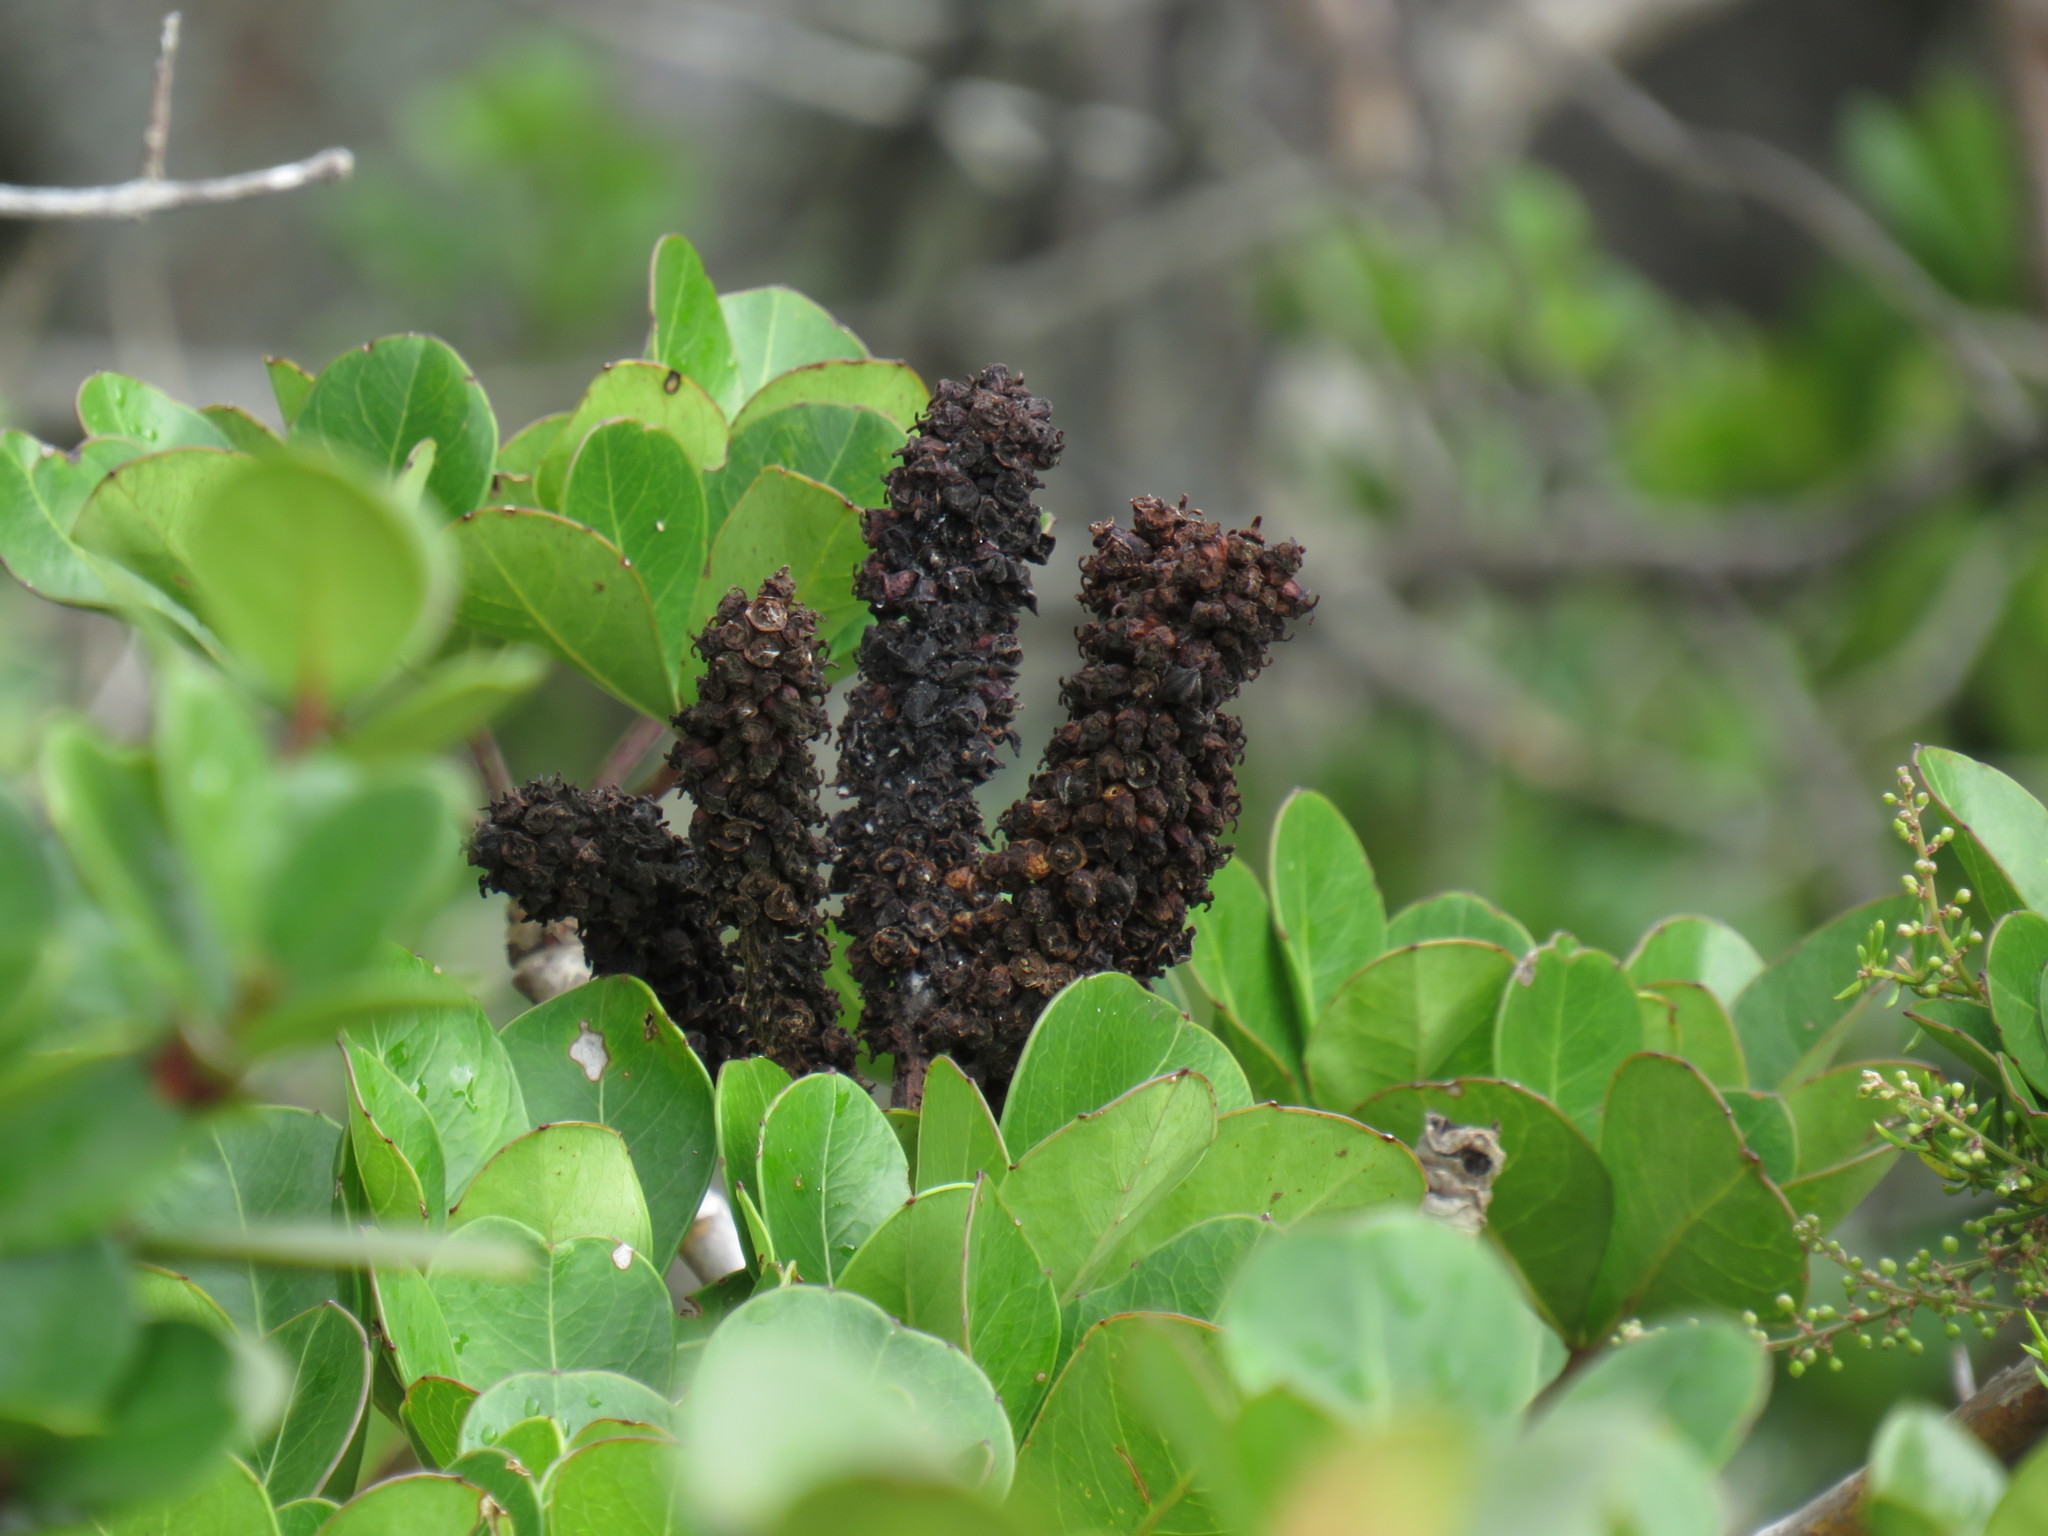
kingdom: Plantae
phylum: Tracheophyta
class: Magnoliopsida
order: Apiales
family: Araliaceae
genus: Cussonia
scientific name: Cussonia thyrsiflora
